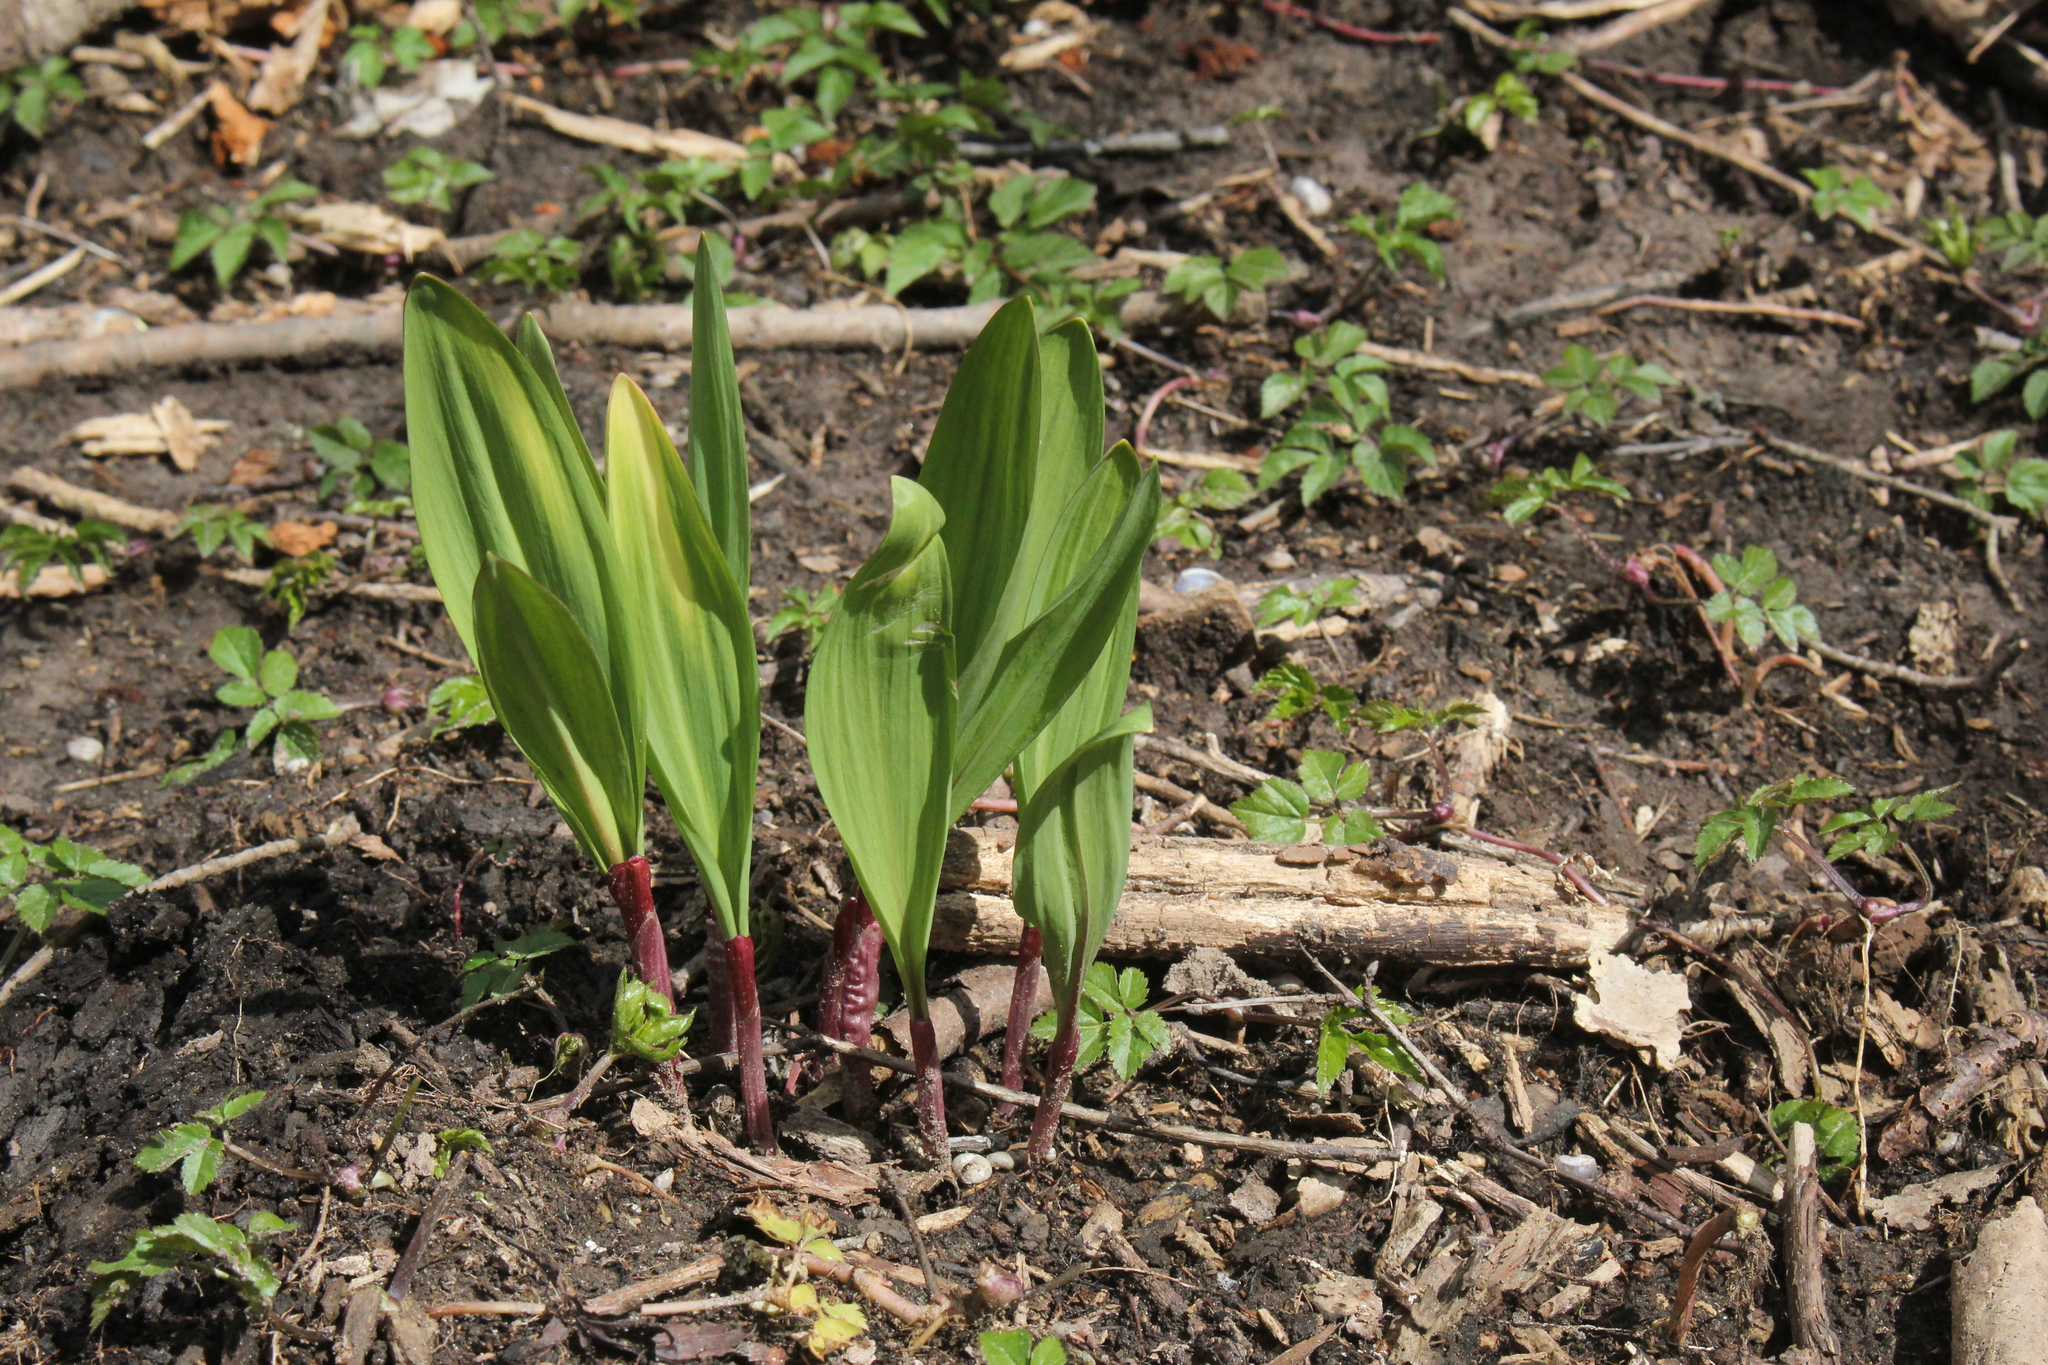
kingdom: Plantae
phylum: Tracheophyta
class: Liliopsida
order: Asparagales
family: Amaryllidaceae
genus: Allium
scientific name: Allium tricoccum
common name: Ramp
